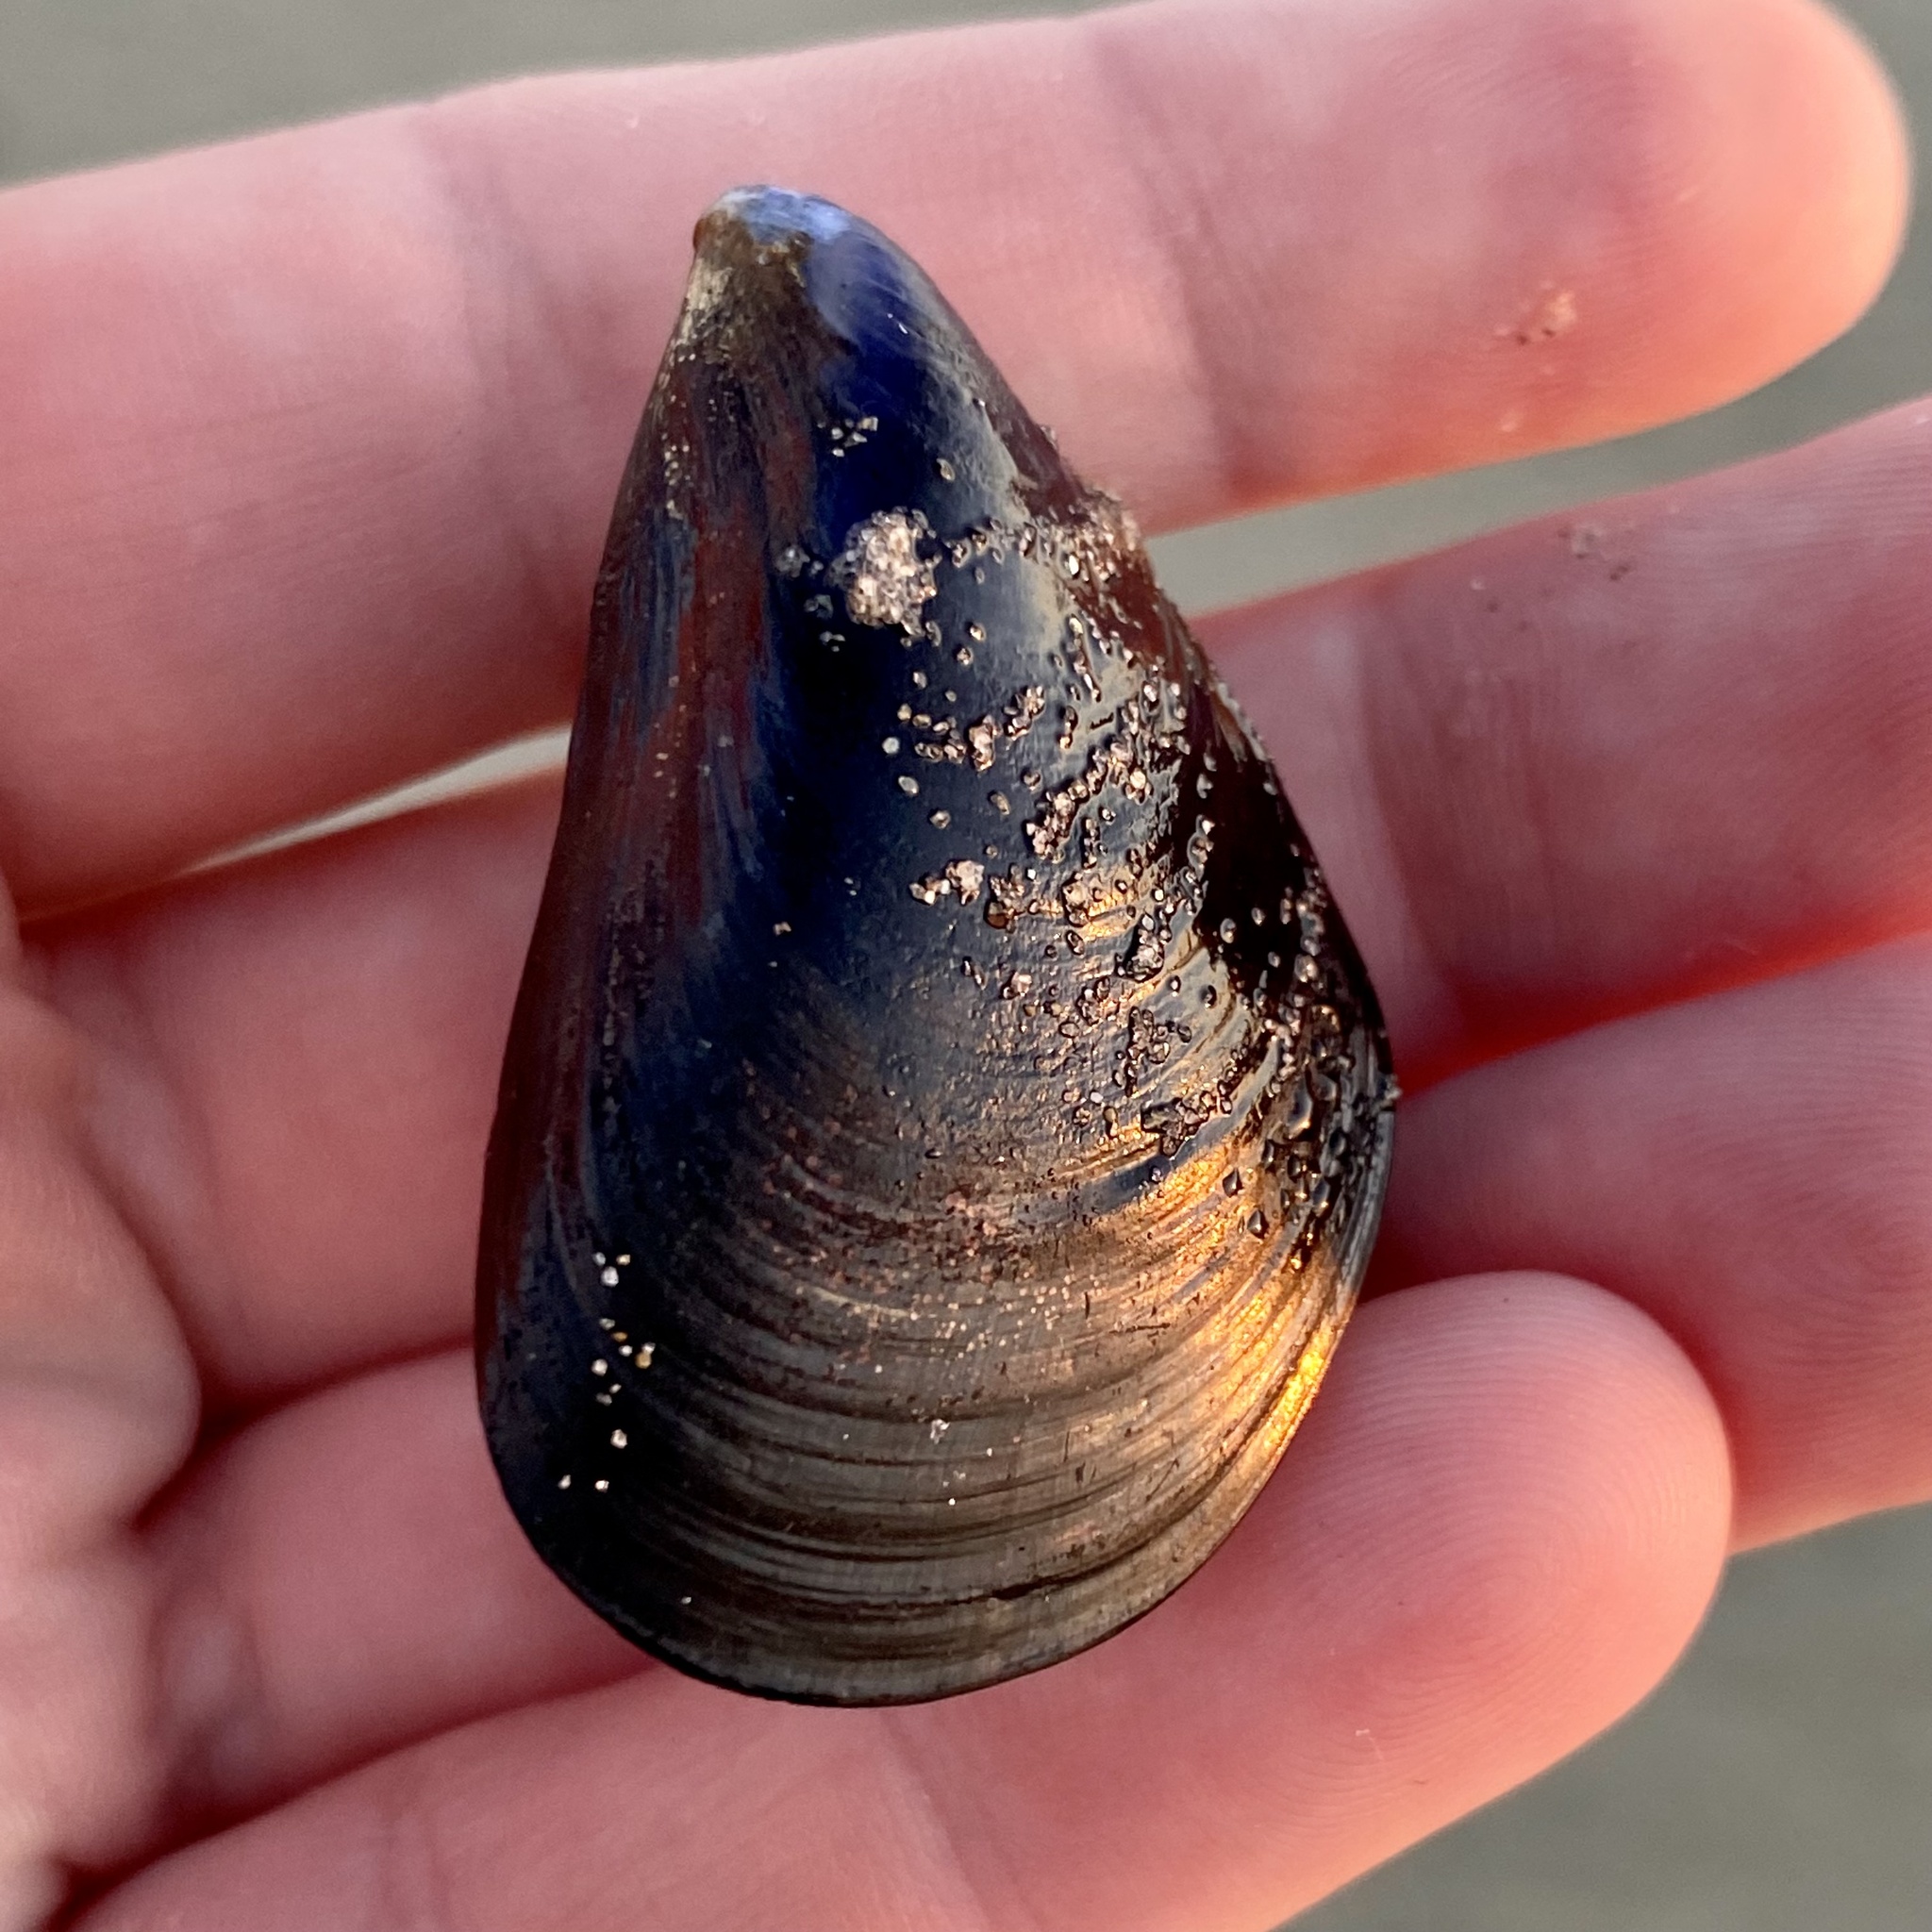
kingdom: Animalia
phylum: Mollusca
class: Bivalvia
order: Mytilida
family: Mytilidae
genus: Mytilus
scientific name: Mytilus galloprovincialis
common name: Mediterranean mussel
